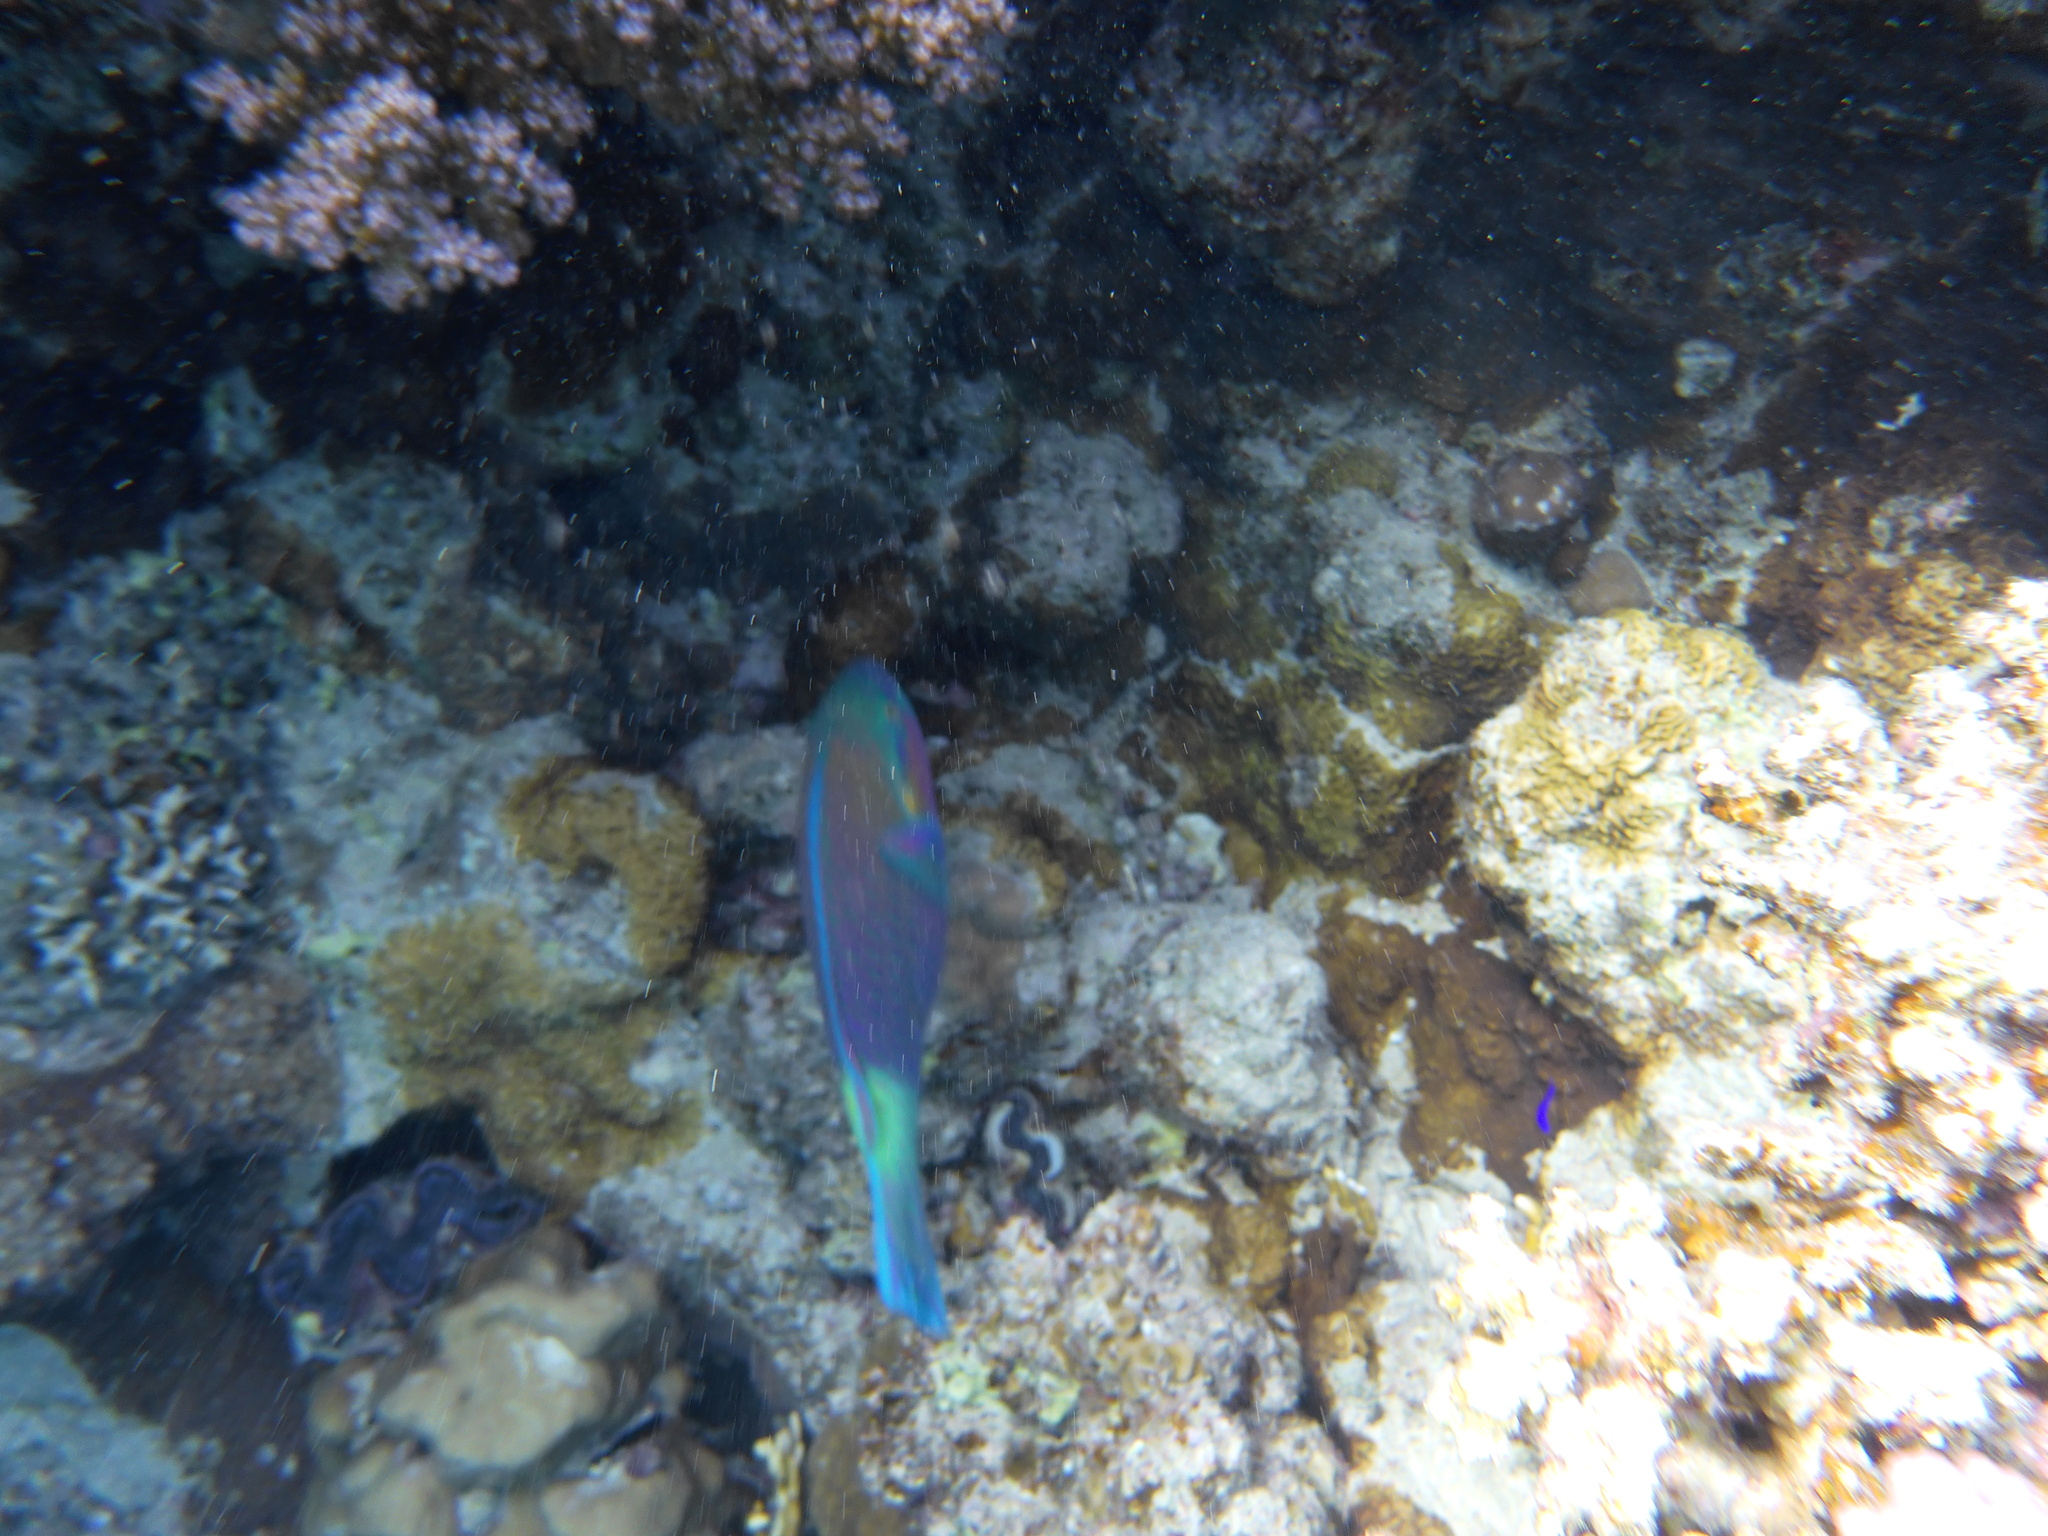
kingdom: Animalia
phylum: Chordata
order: Perciformes
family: Scaridae
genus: Chlorurus
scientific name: Chlorurus sordidus
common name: Bullethead parrotfish
